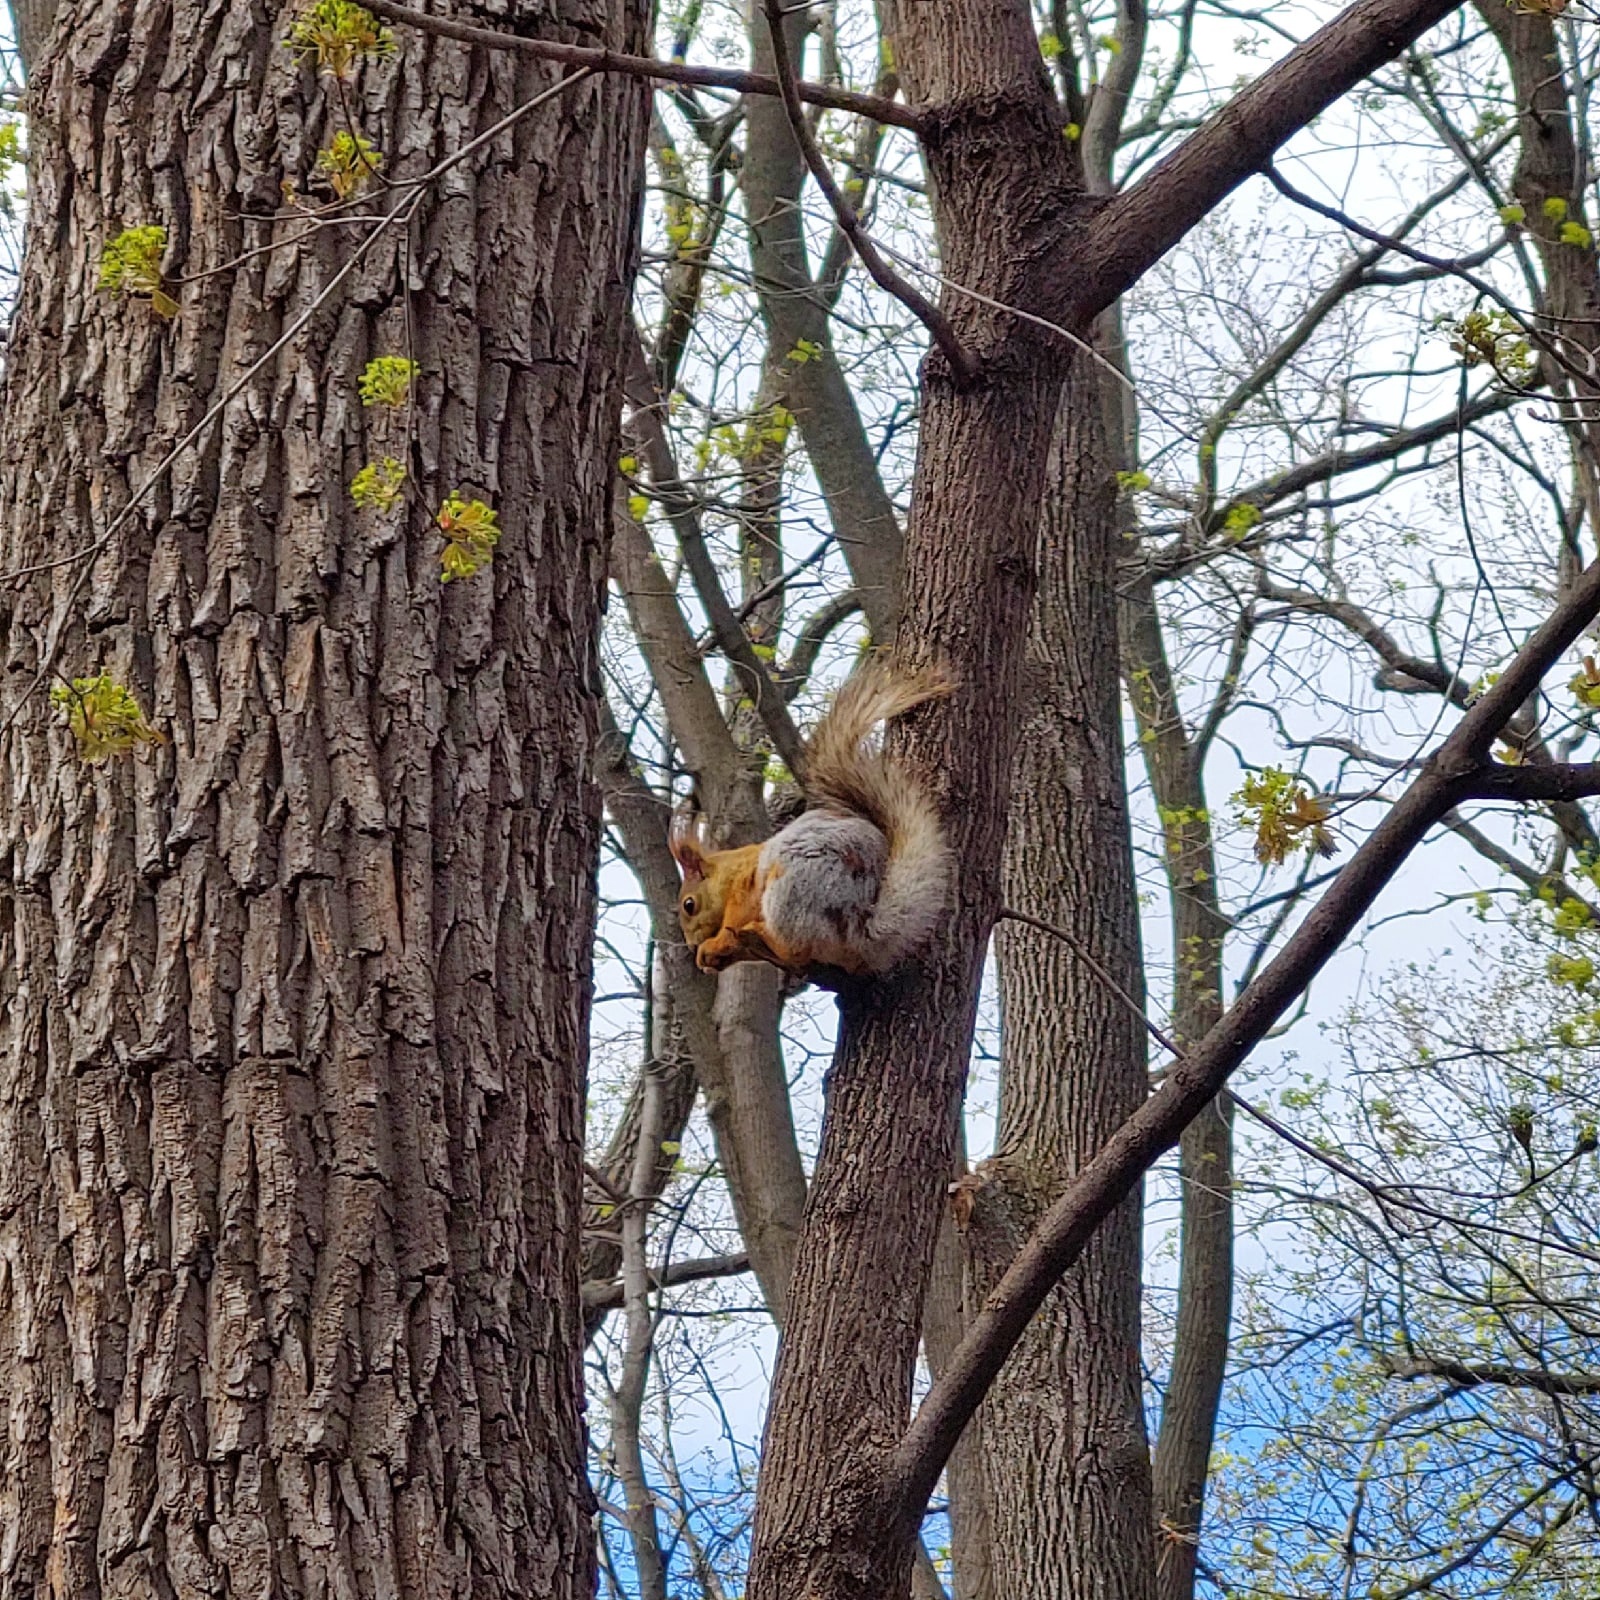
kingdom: Animalia
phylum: Chordata
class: Mammalia
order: Rodentia
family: Sciuridae
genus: Sciurus
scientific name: Sciurus vulgaris
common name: Eurasian red squirrel
